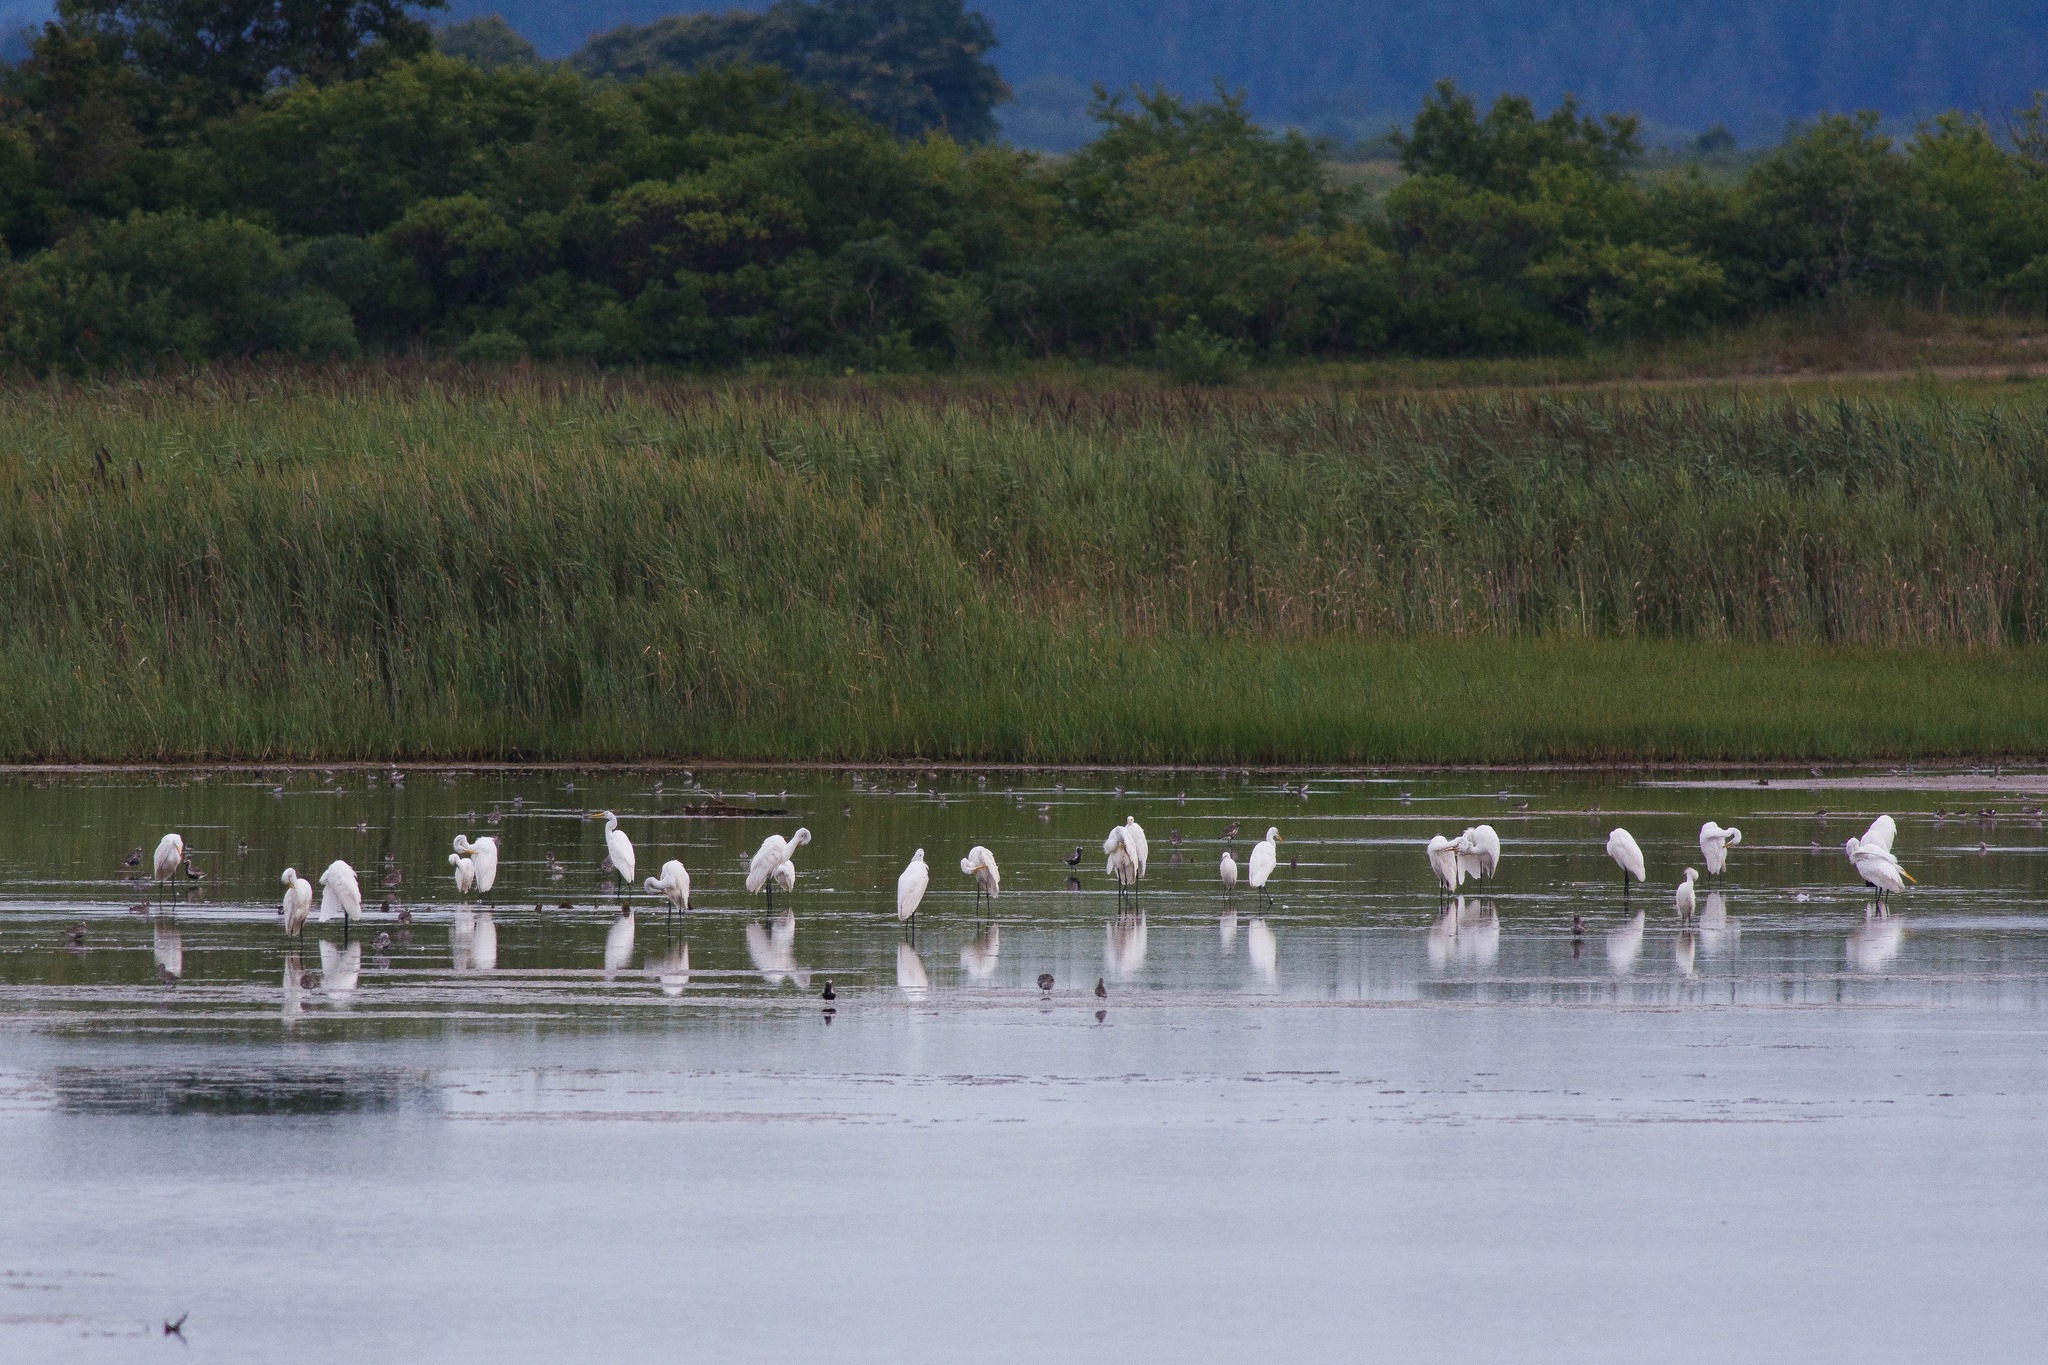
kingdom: Animalia
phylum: Chordata
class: Aves
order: Pelecaniformes
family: Ardeidae
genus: Ardea
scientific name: Ardea alba
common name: Great egret
